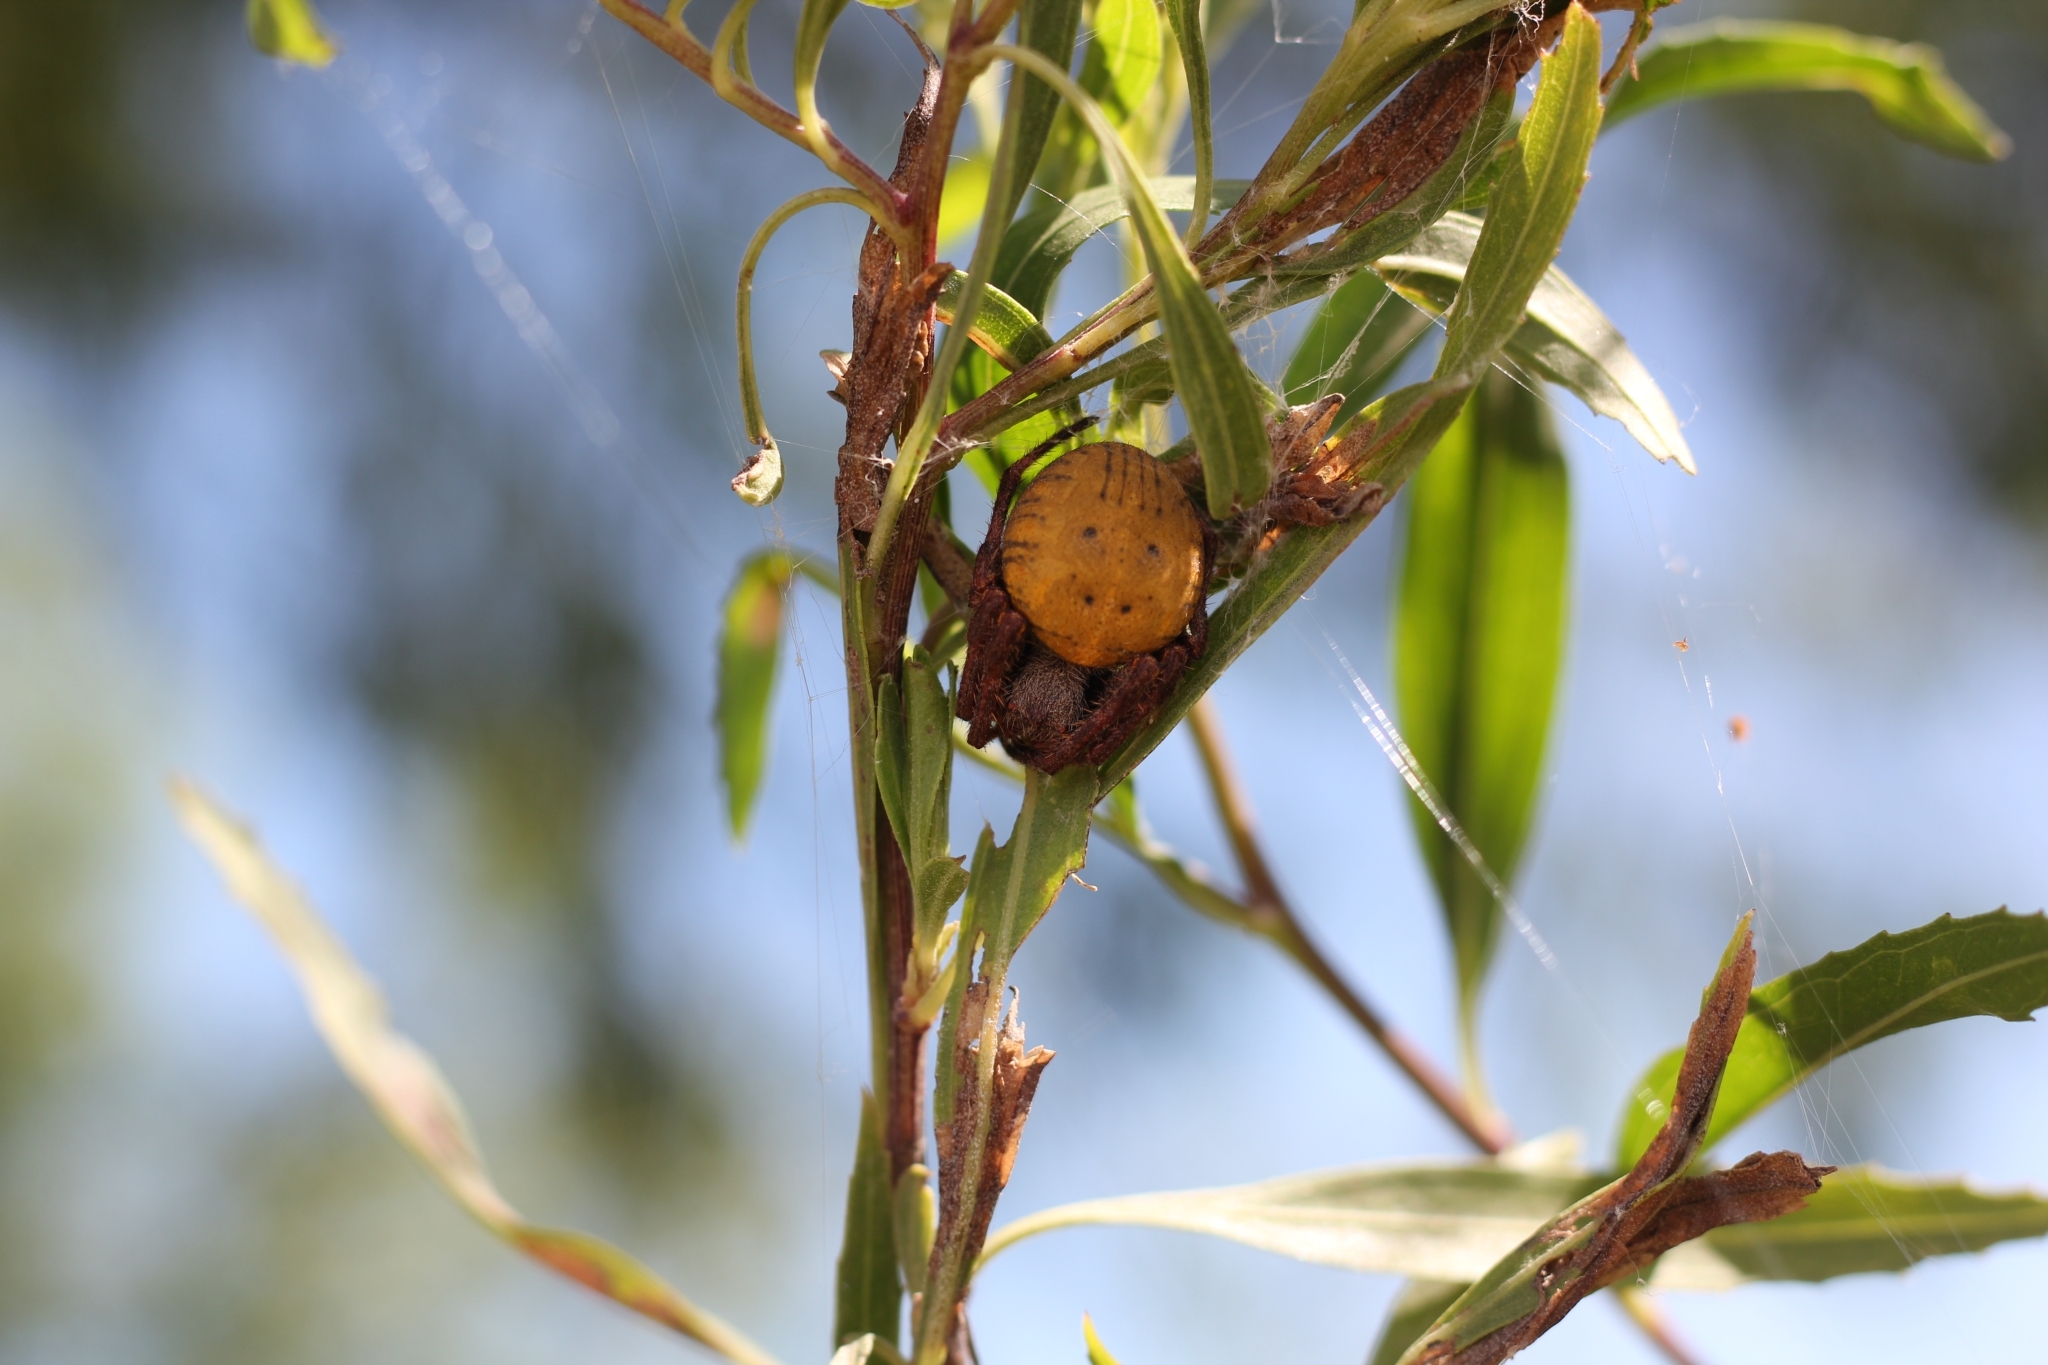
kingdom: Animalia
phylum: Arthropoda
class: Arachnida
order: Araneae
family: Araneidae
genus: Parawixia
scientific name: Parawixia bistriata
